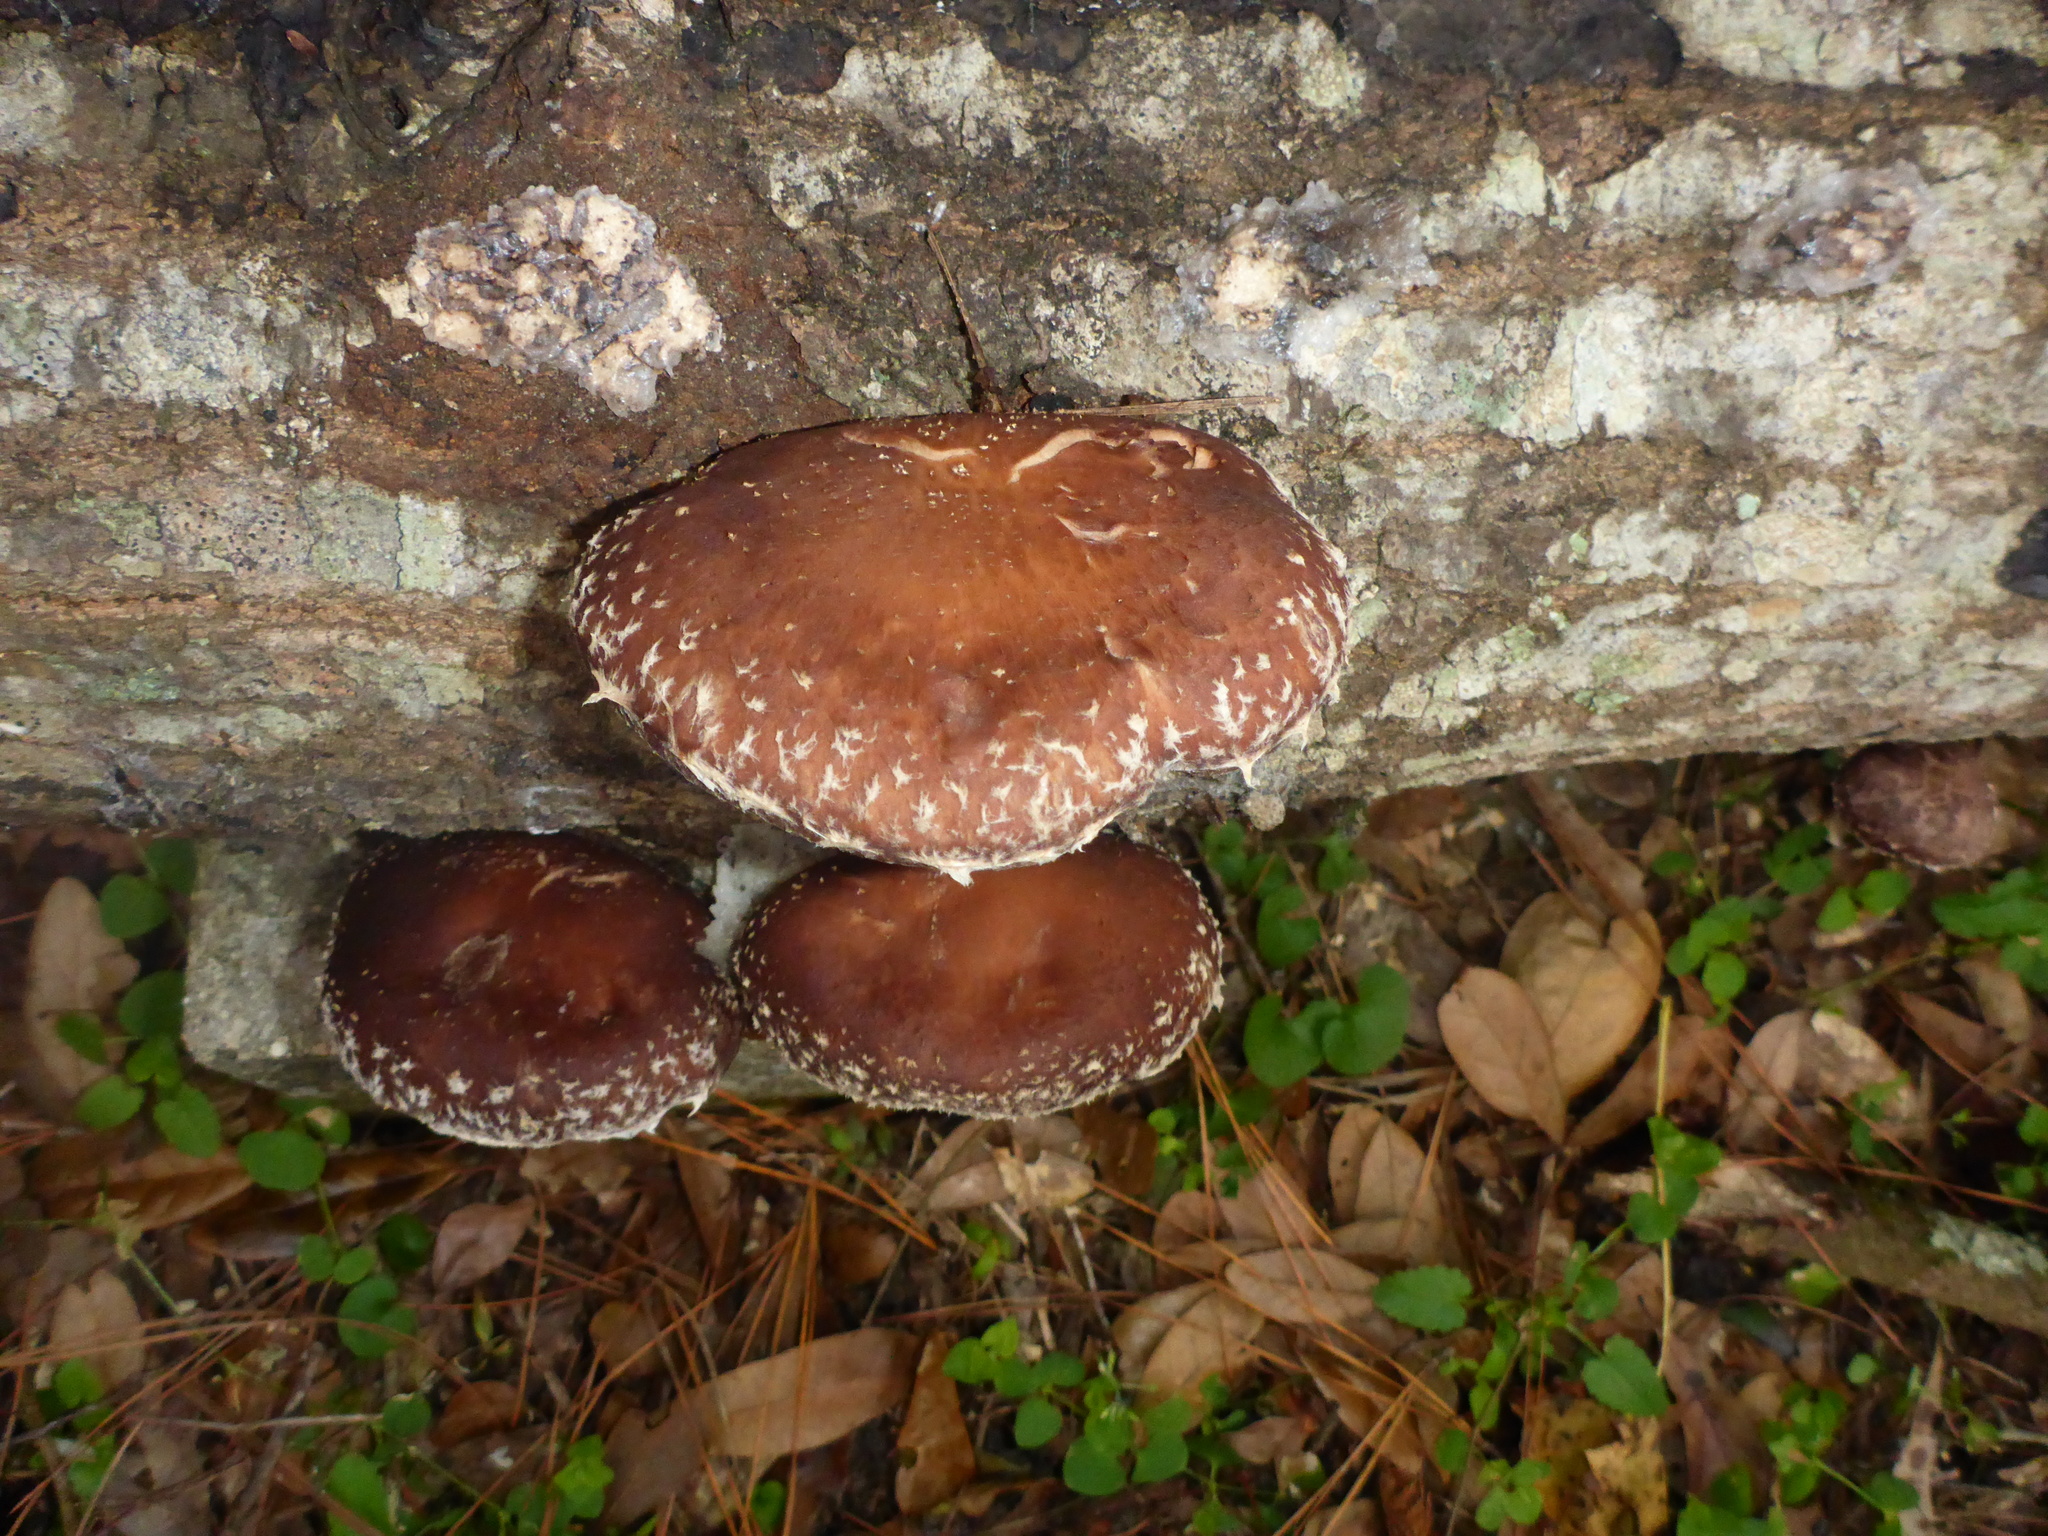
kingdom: Fungi
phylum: Basidiomycota
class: Agaricomycetes
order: Agaricales
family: Omphalotaceae
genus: Lentinula
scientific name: Lentinula edodes
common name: Shiitake
